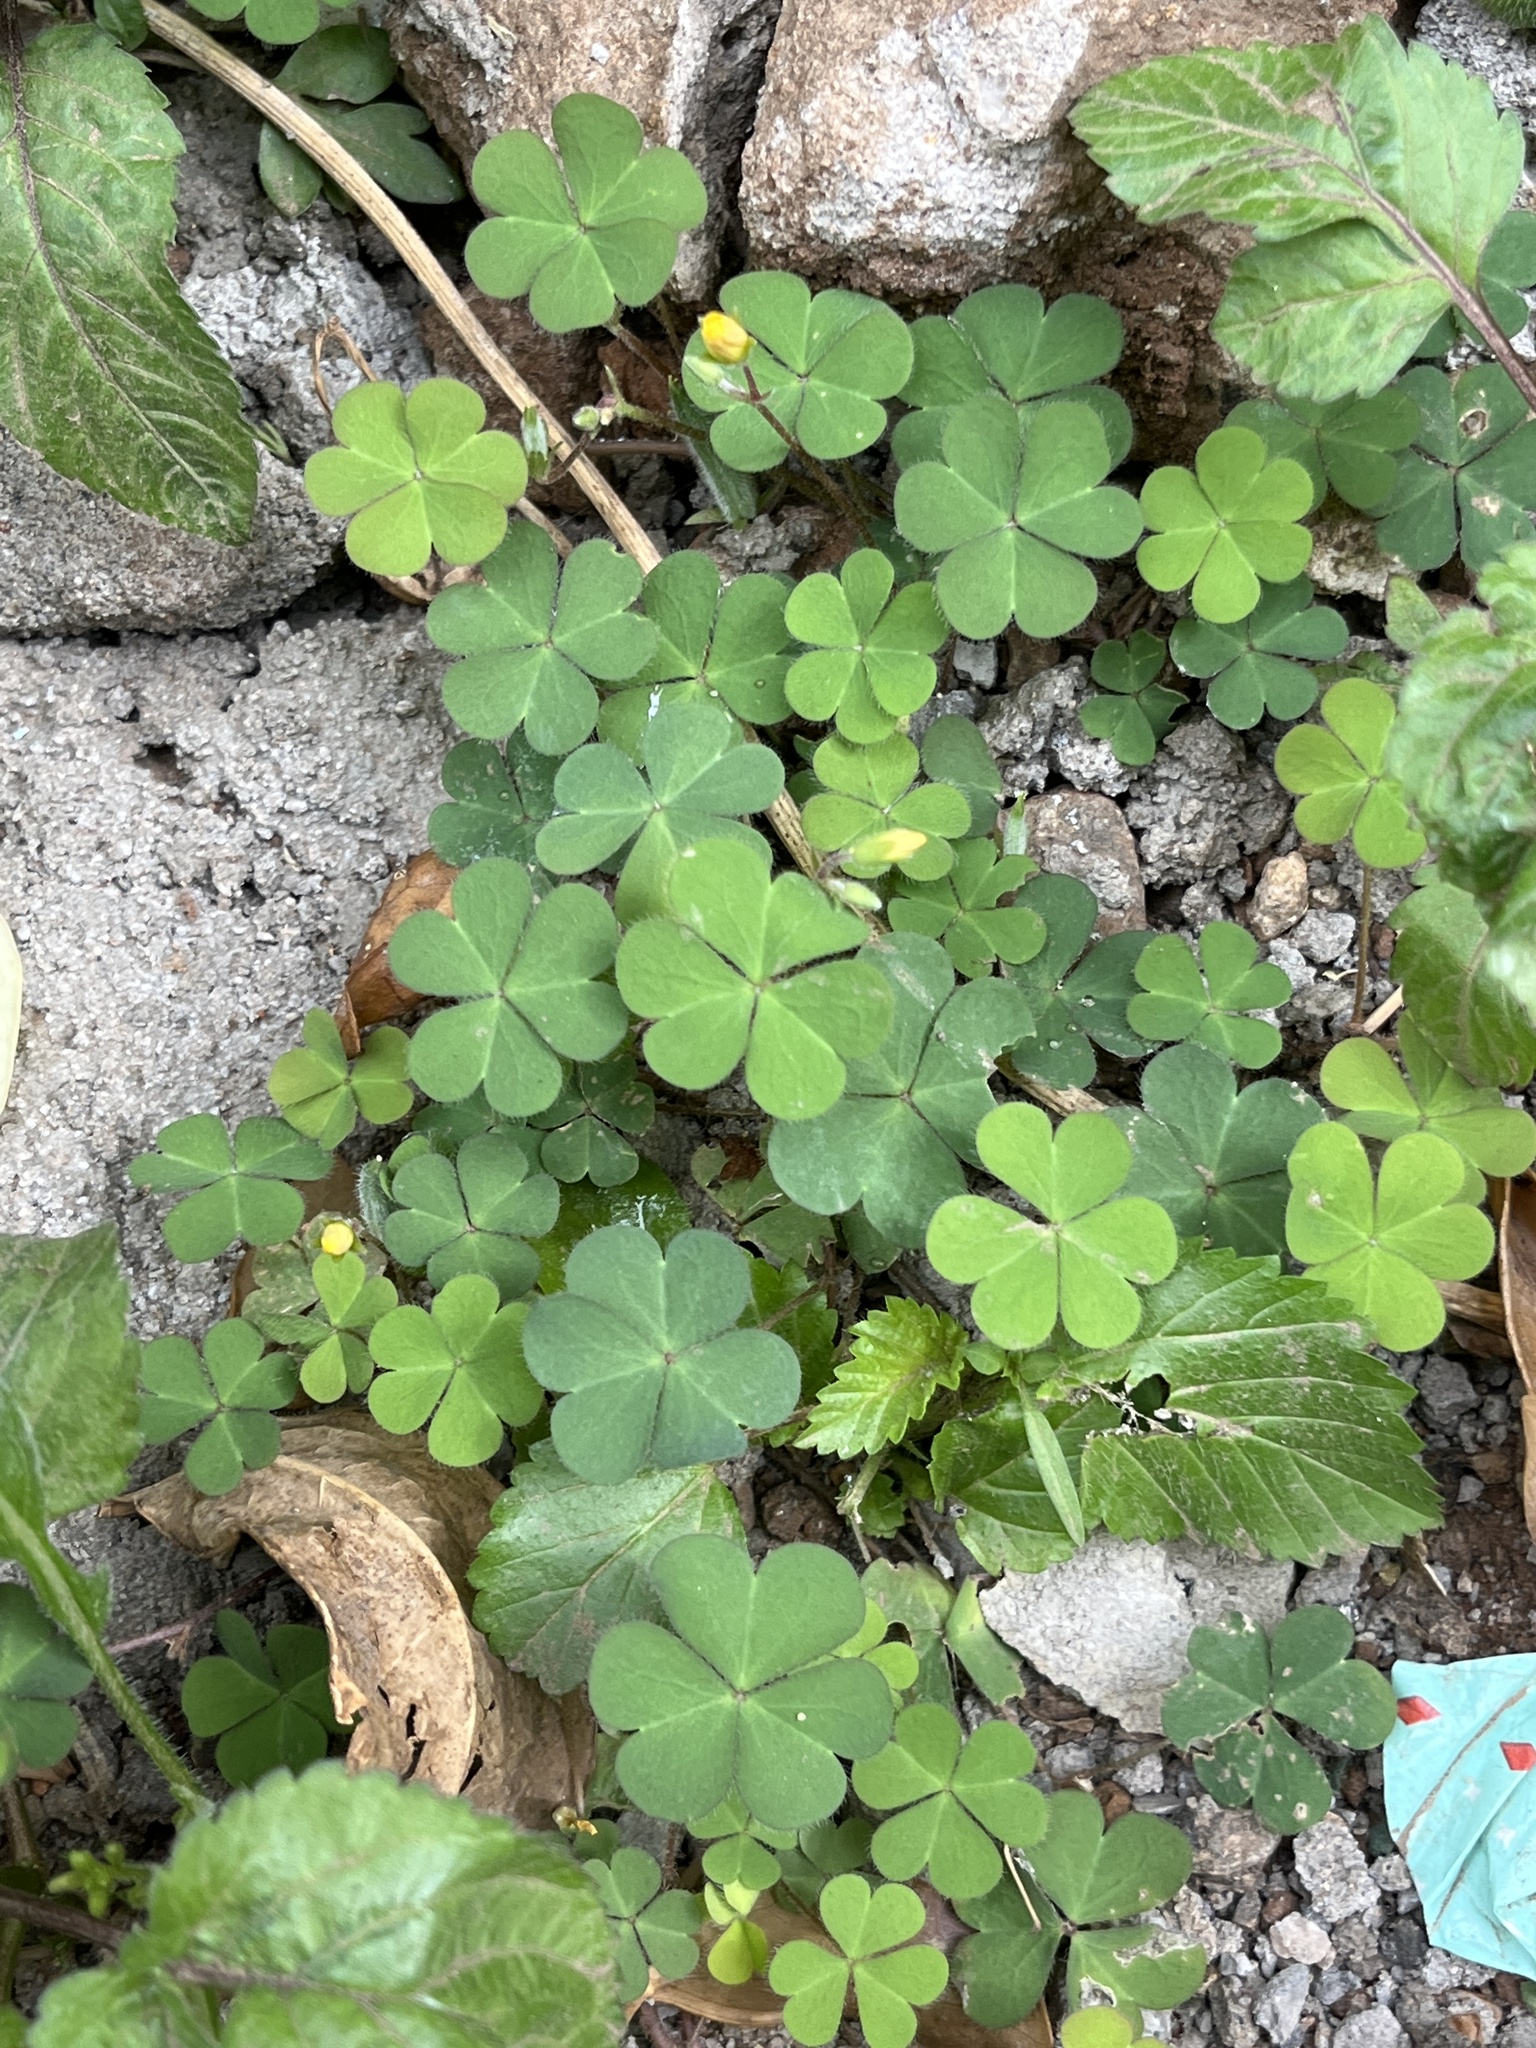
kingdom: Plantae
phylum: Tracheophyta
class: Magnoliopsida
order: Oxalidales
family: Oxalidaceae
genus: Oxalis
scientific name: Oxalis corniculata
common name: Procumbent yellow-sorrel
